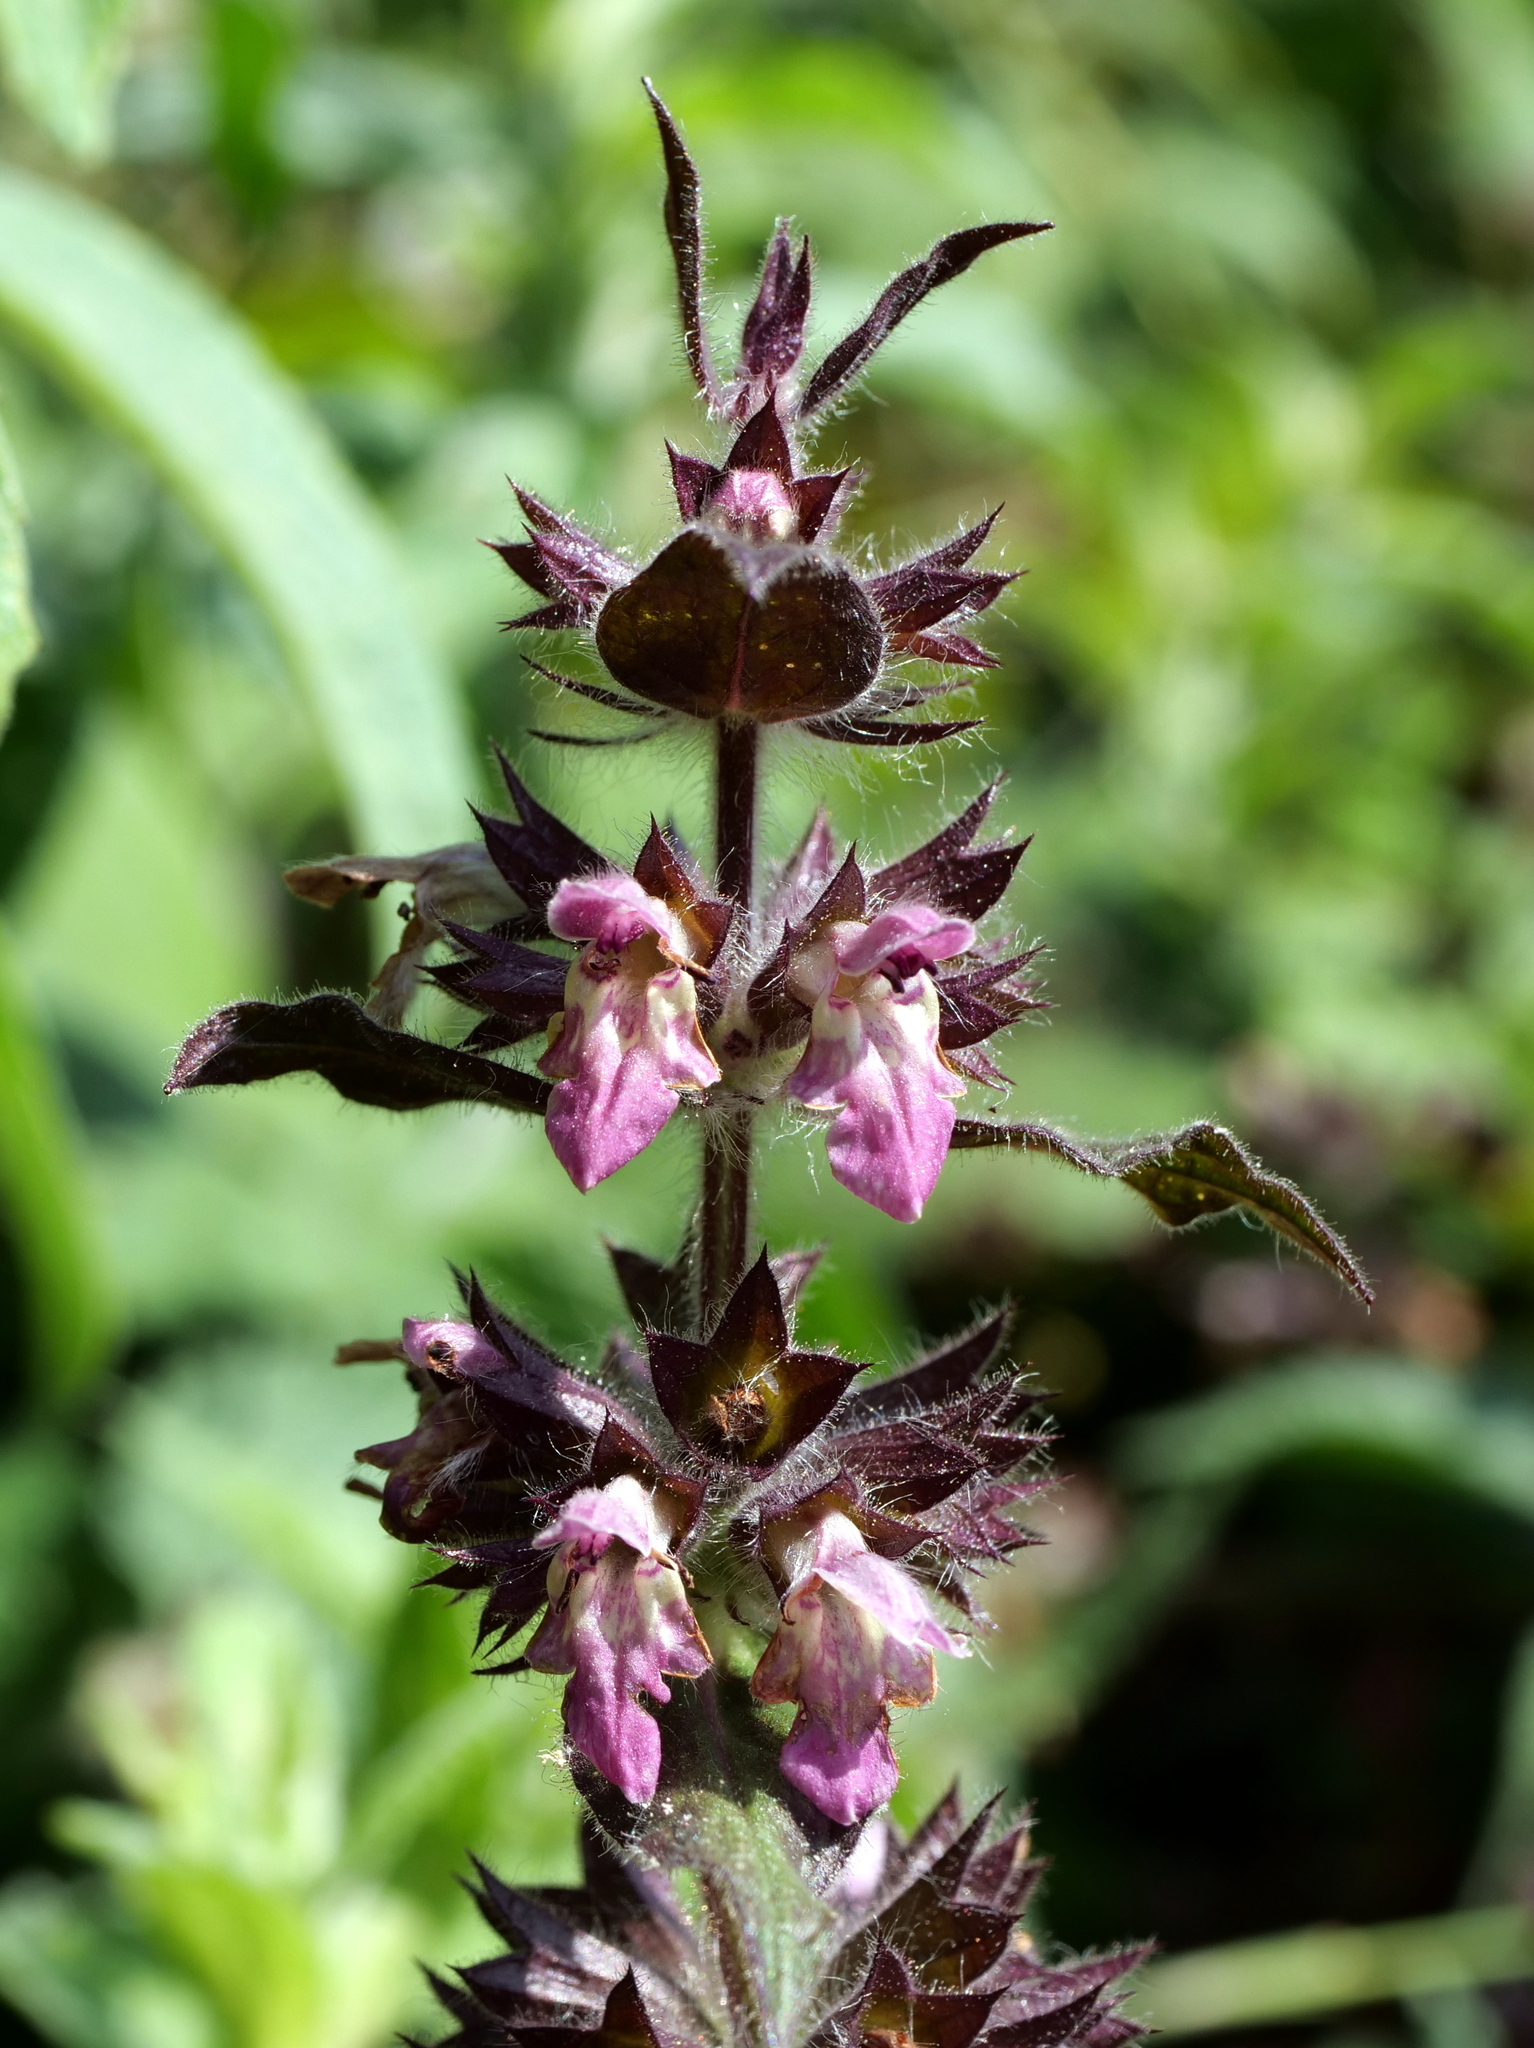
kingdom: Plantae
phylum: Tracheophyta
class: Magnoliopsida
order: Lamiales
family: Lamiaceae
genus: Stachys
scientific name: Stachys alpina
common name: Limestone woundwort
